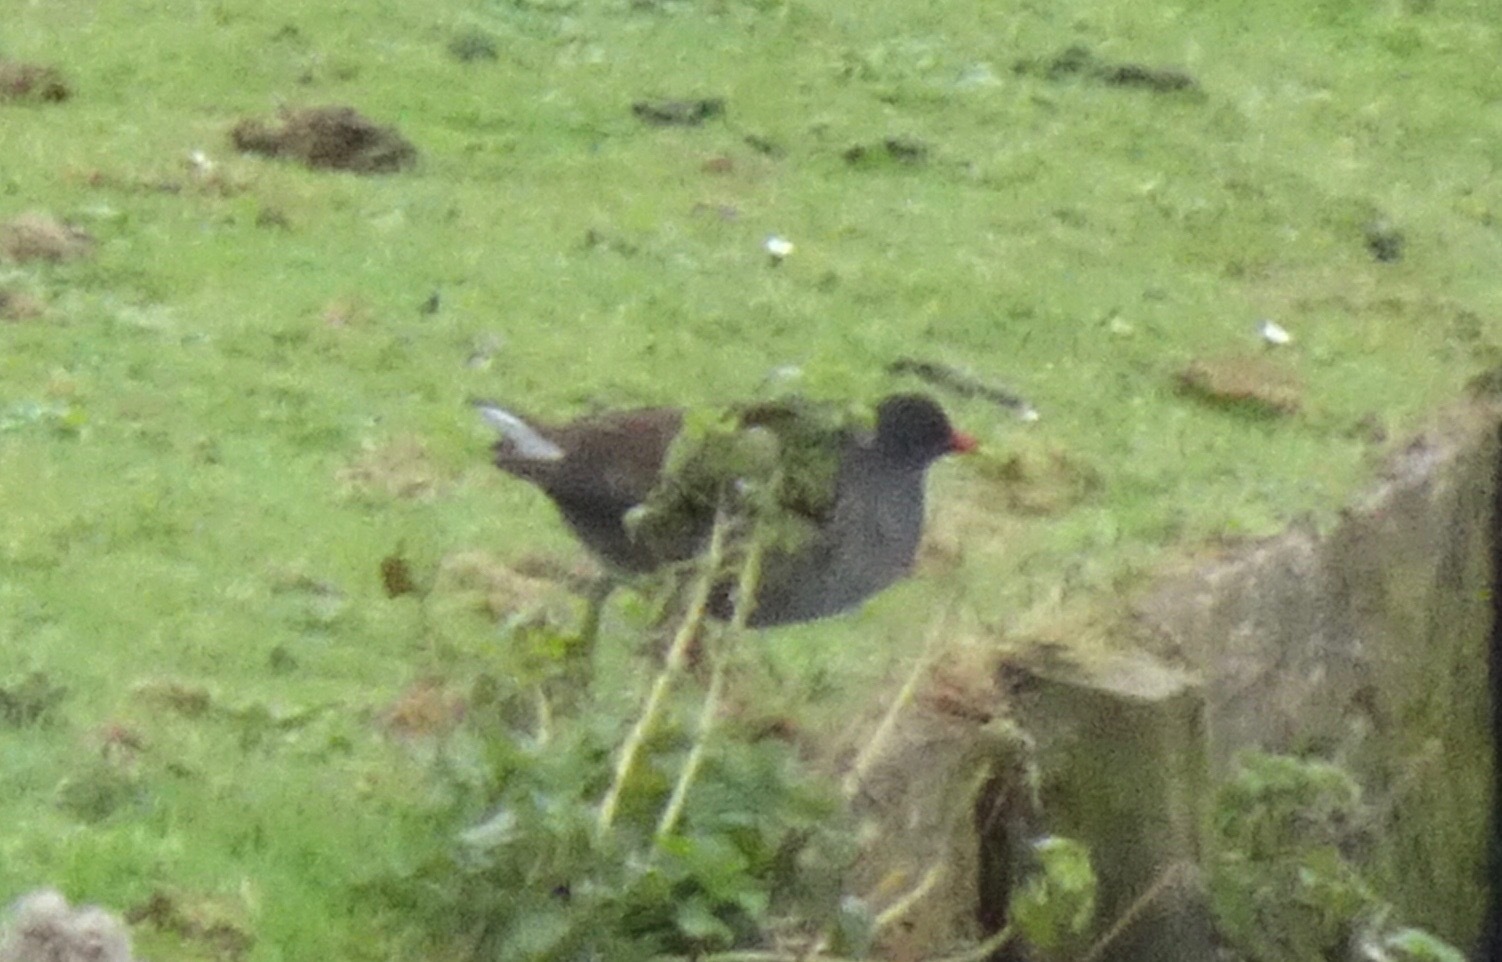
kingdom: Animalia
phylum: Chordata
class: Aves
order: Gruiformes
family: Rallidae
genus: Gallinula
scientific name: Gallinula chloropus
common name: Common moorhen
